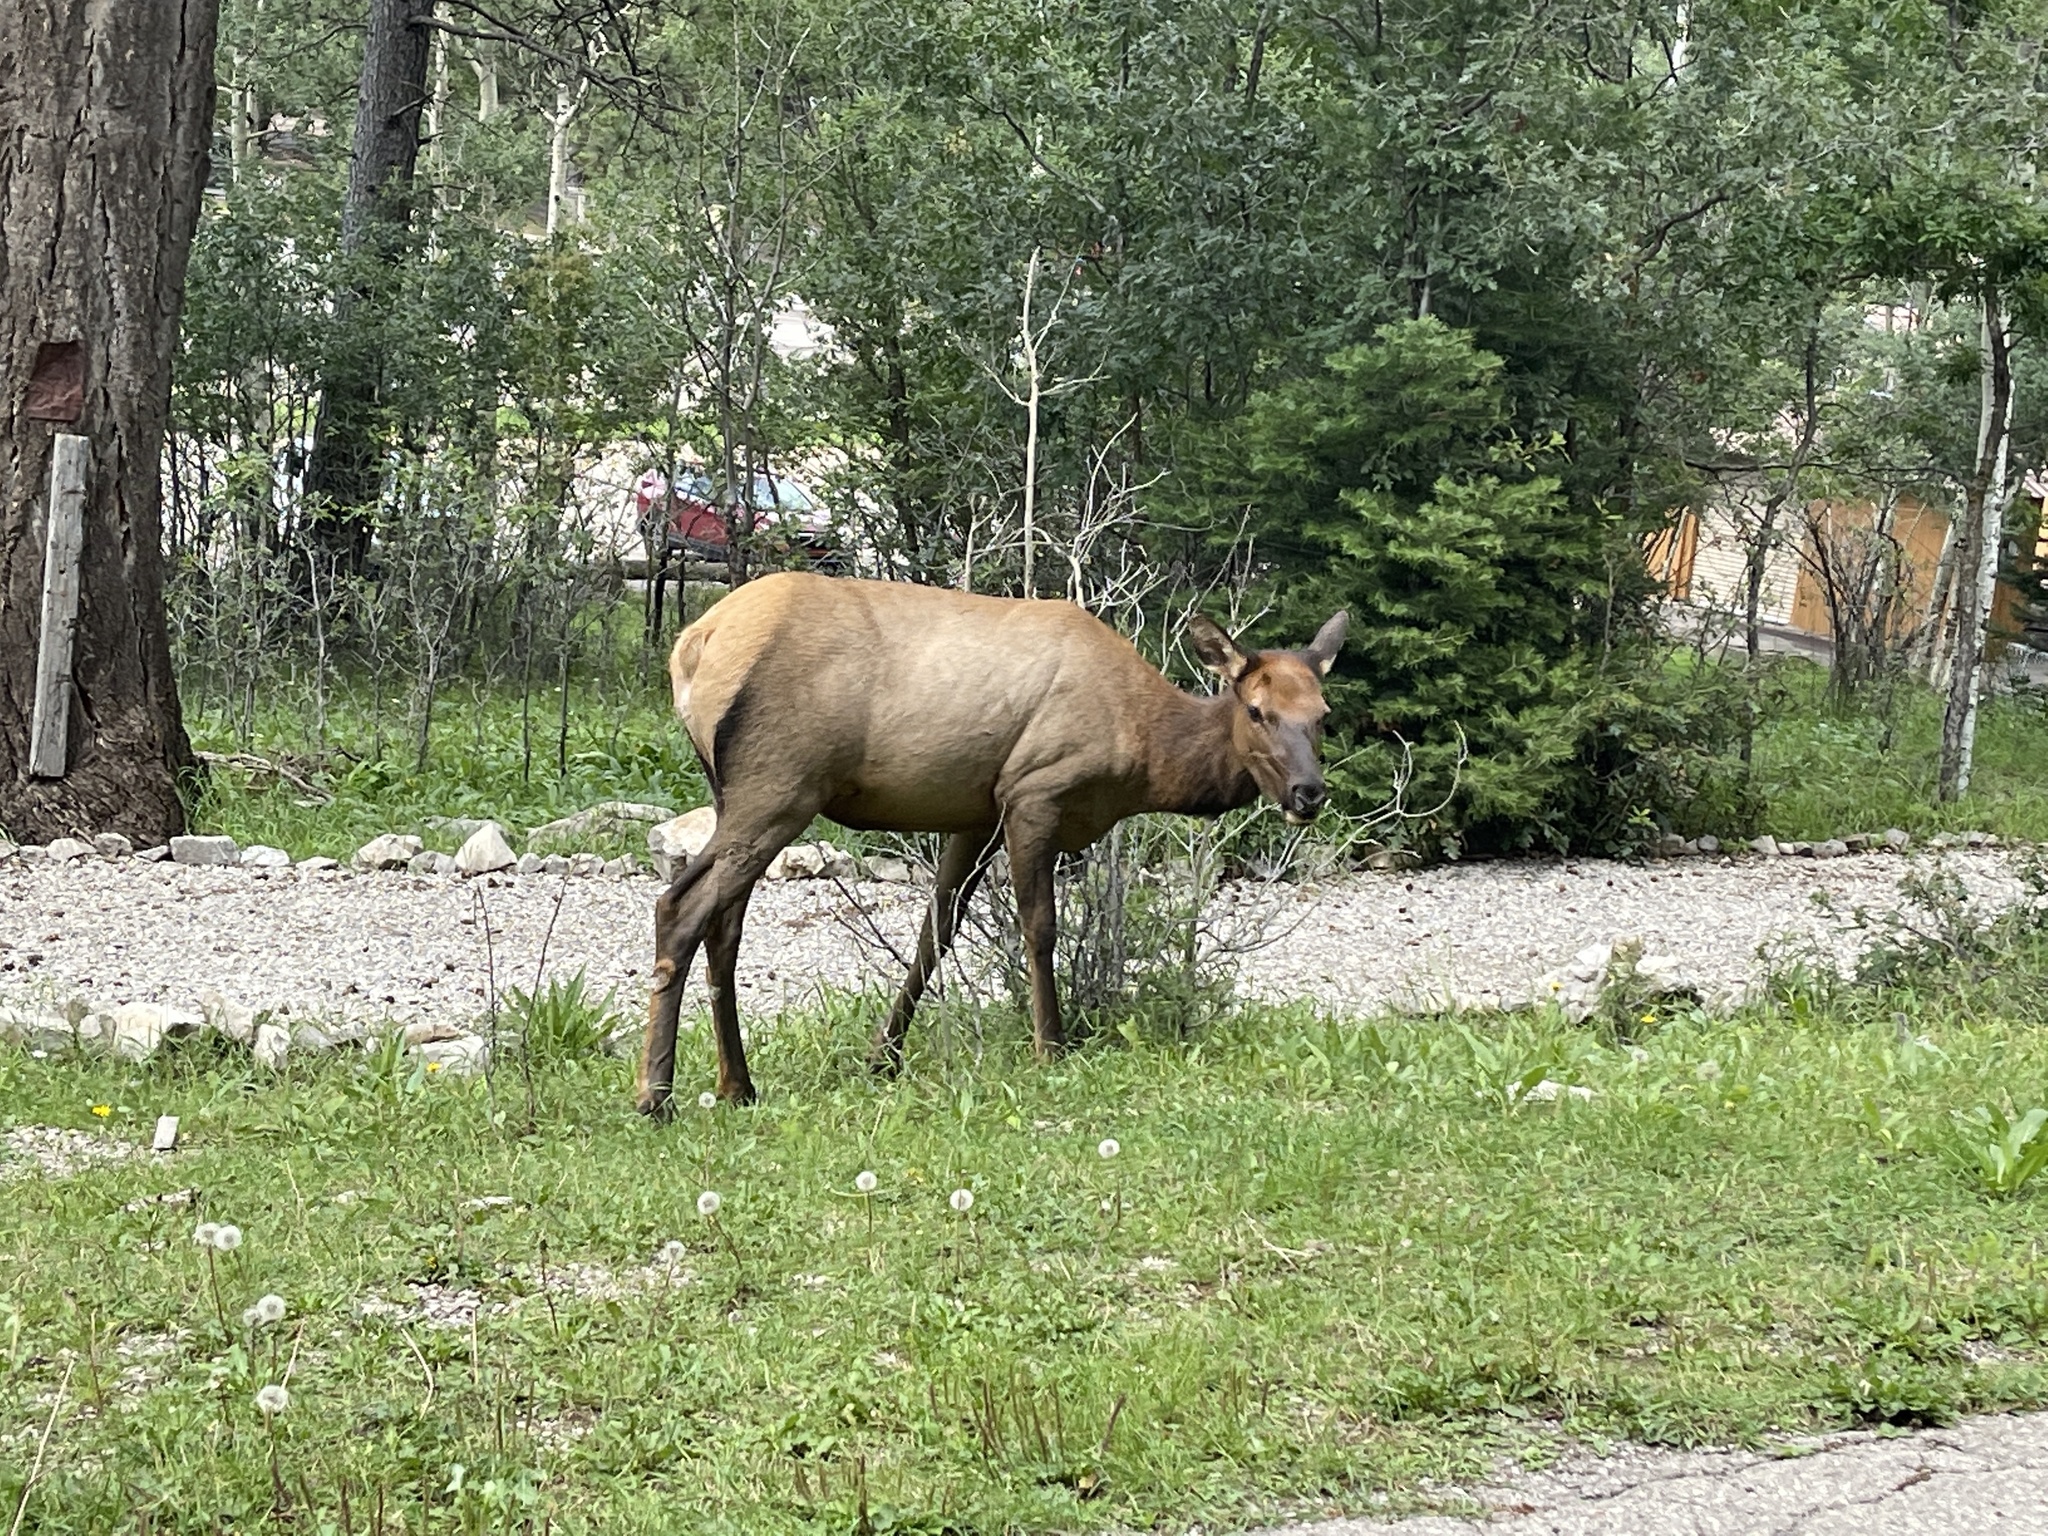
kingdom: Animalia
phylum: Chordata
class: Mammalia
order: Artiodactyla
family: Cervidae
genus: Cervus
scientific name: Cervus elaphus
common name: Red deer
